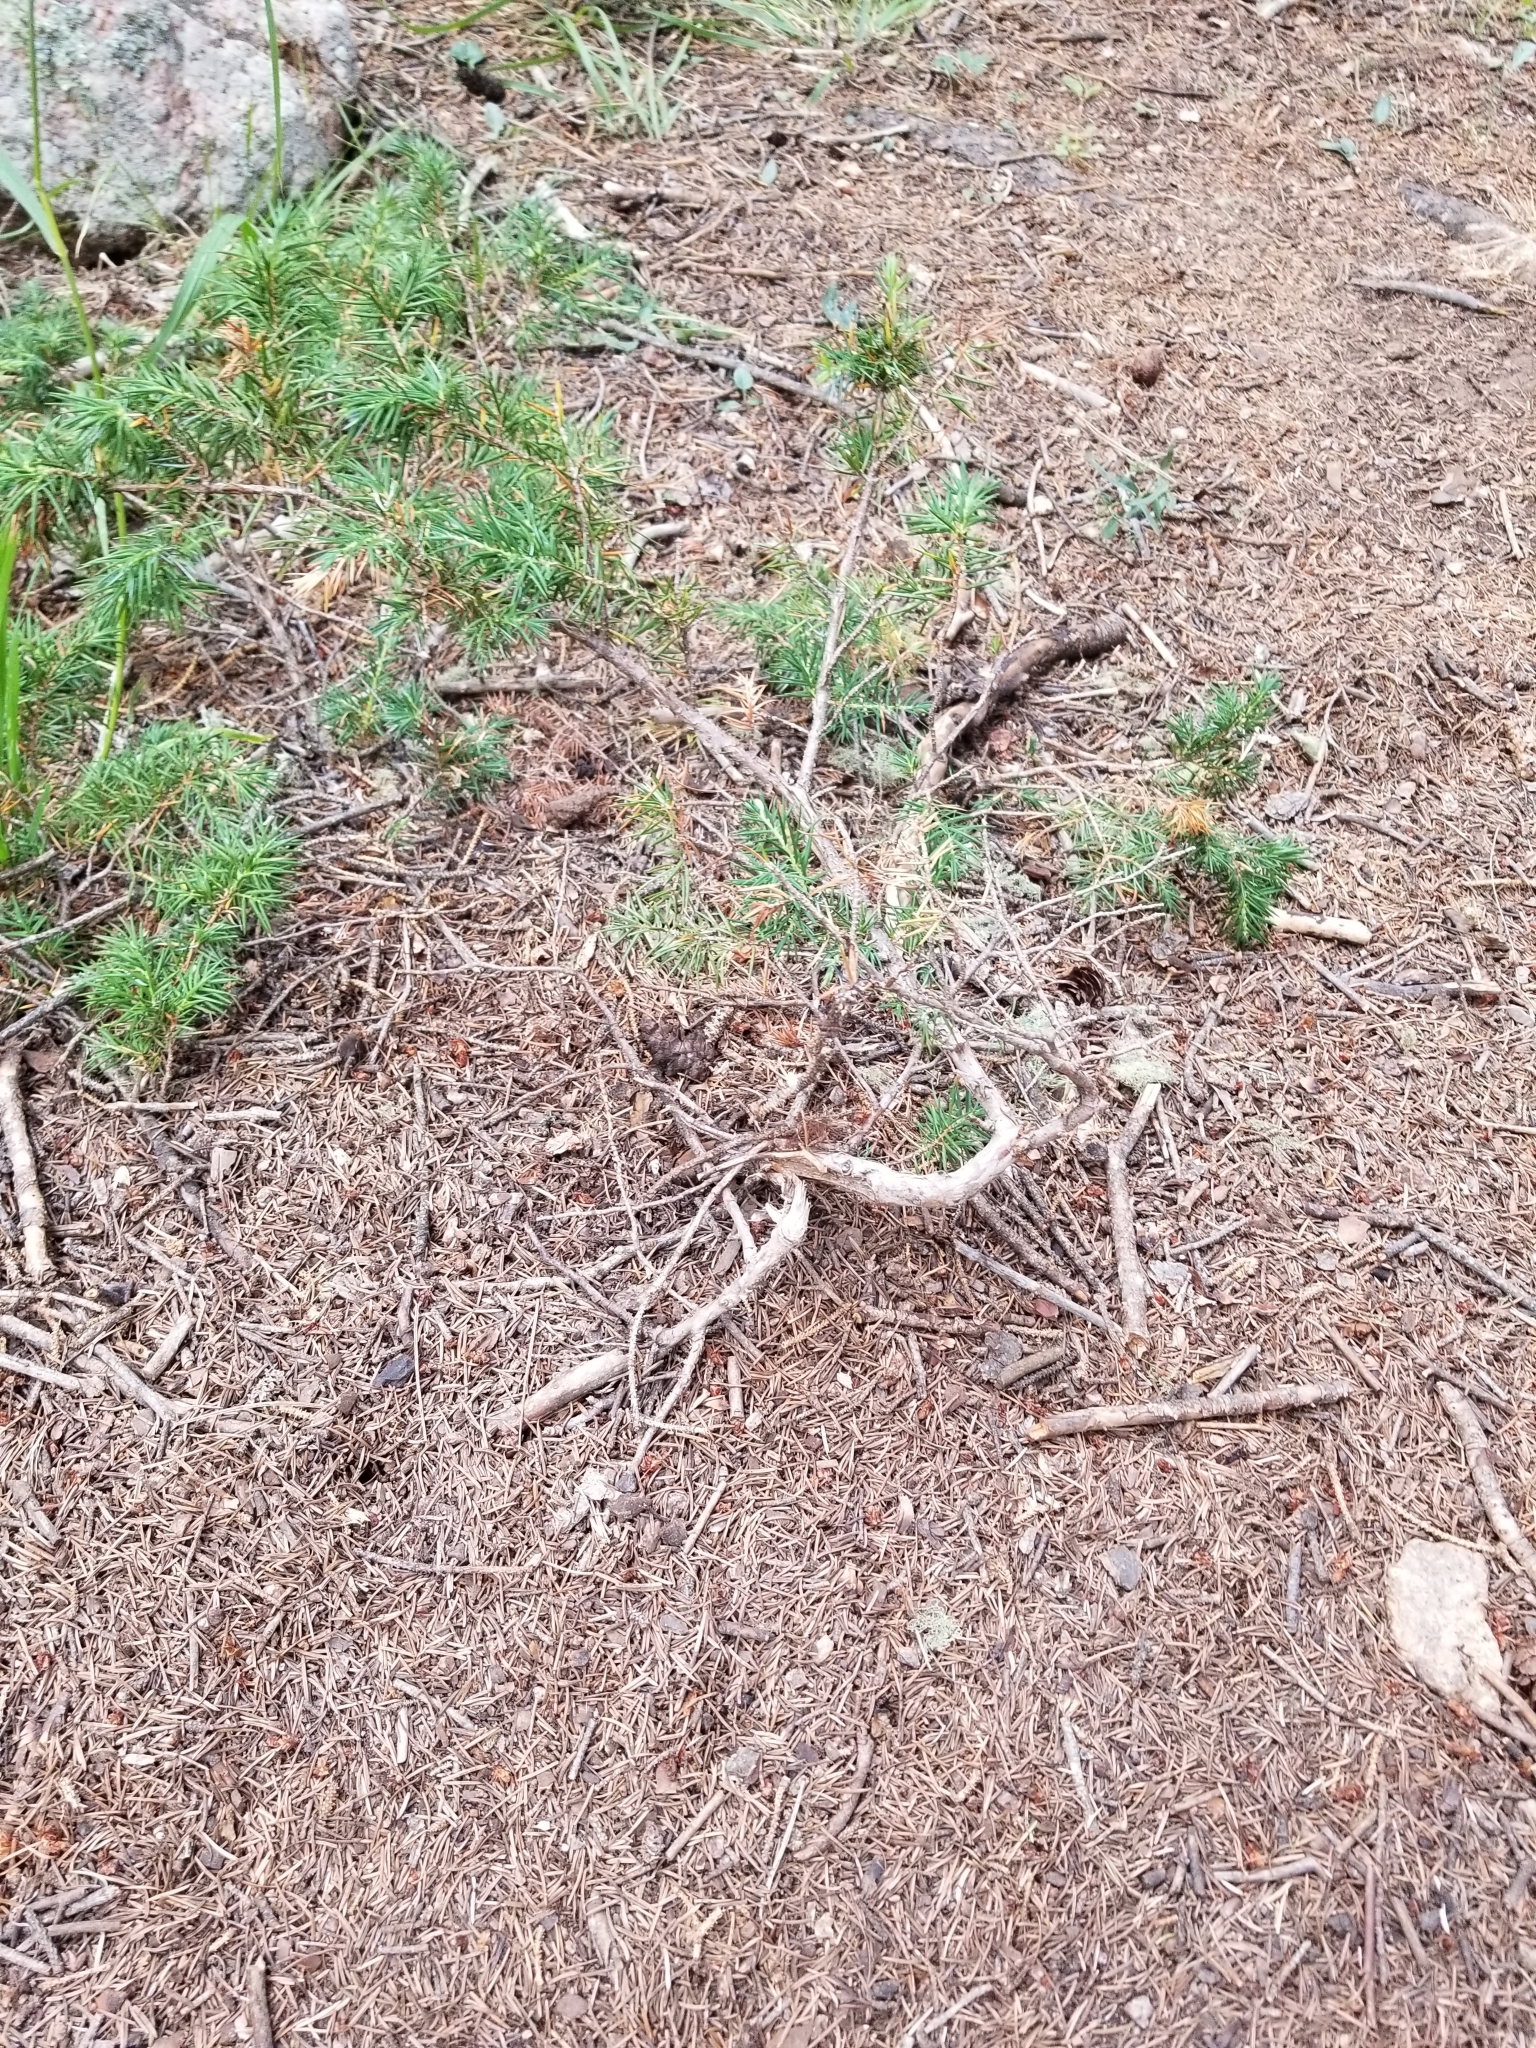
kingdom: Plantae
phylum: Tracheophyta
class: Pinopsida
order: Pinales
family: Cupressaceae
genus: Juniperus
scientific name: Juniperus communis
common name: Common juniper
